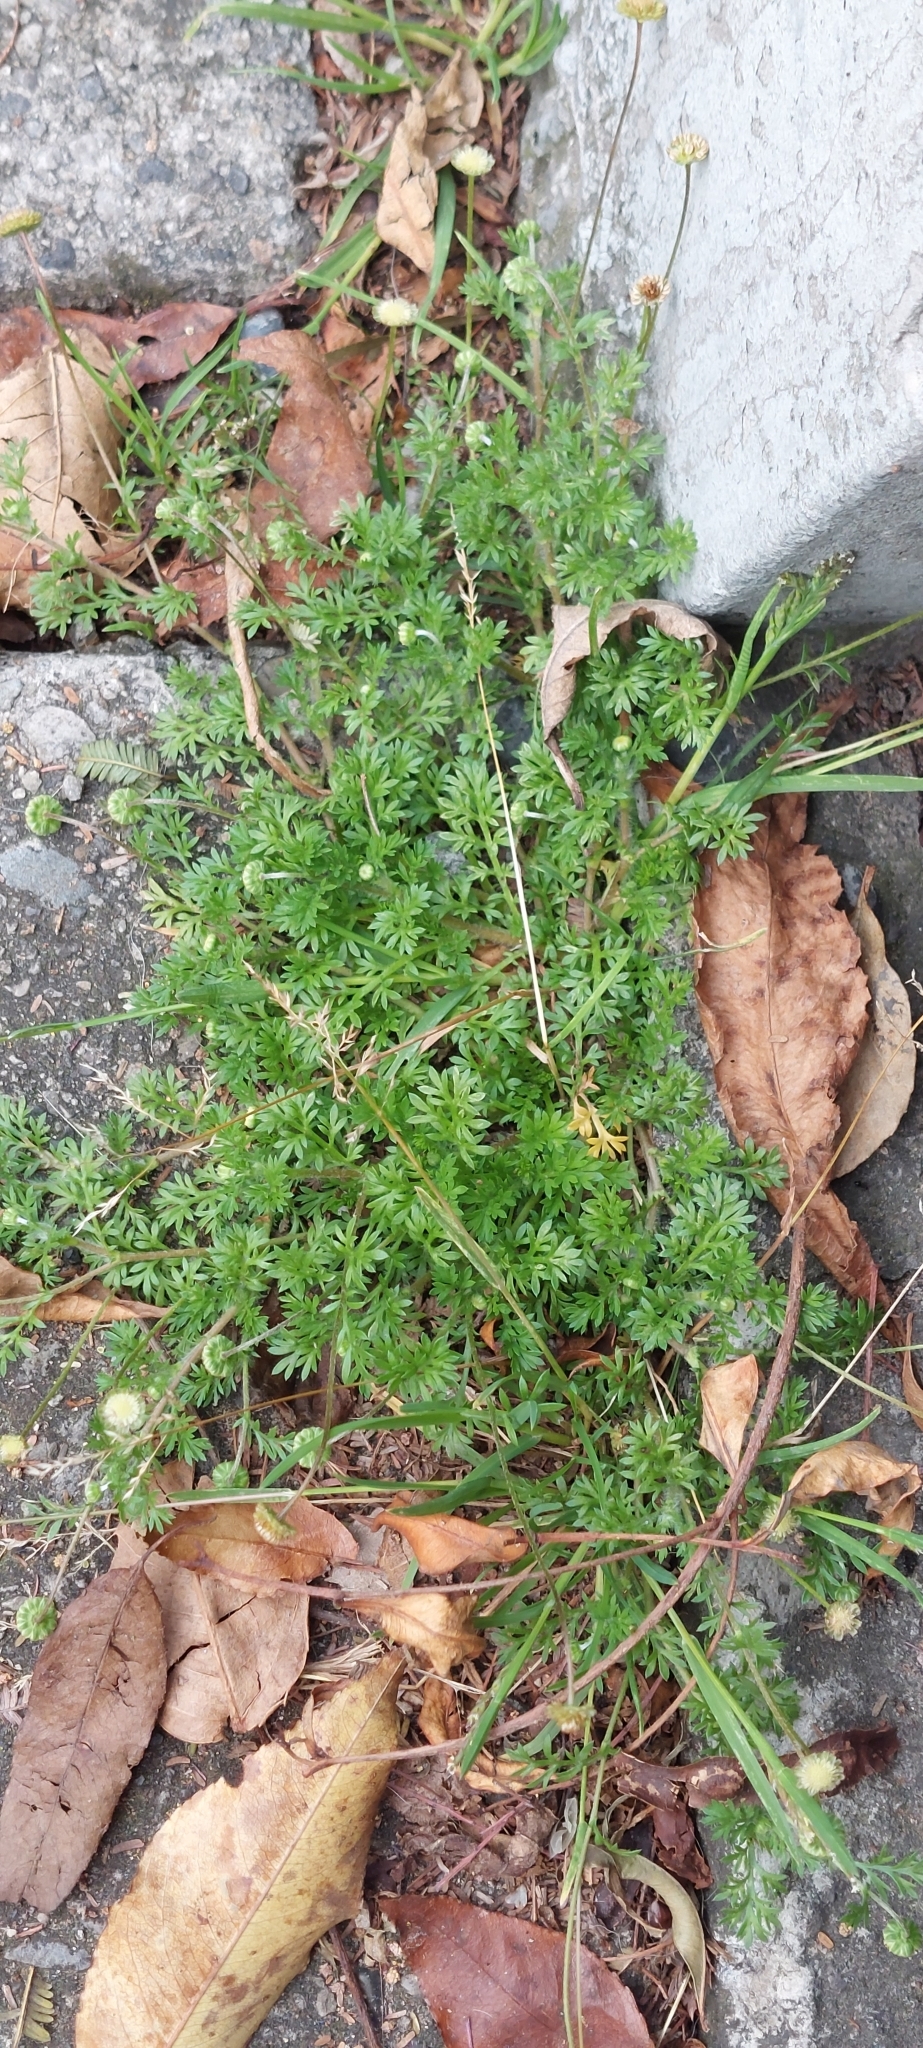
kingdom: Plantae
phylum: Tracheophyta
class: Magnoliopsida
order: Asterales
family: Asteraceae
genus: Cotula
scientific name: Cotula australis
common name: Australian waterbuttons
